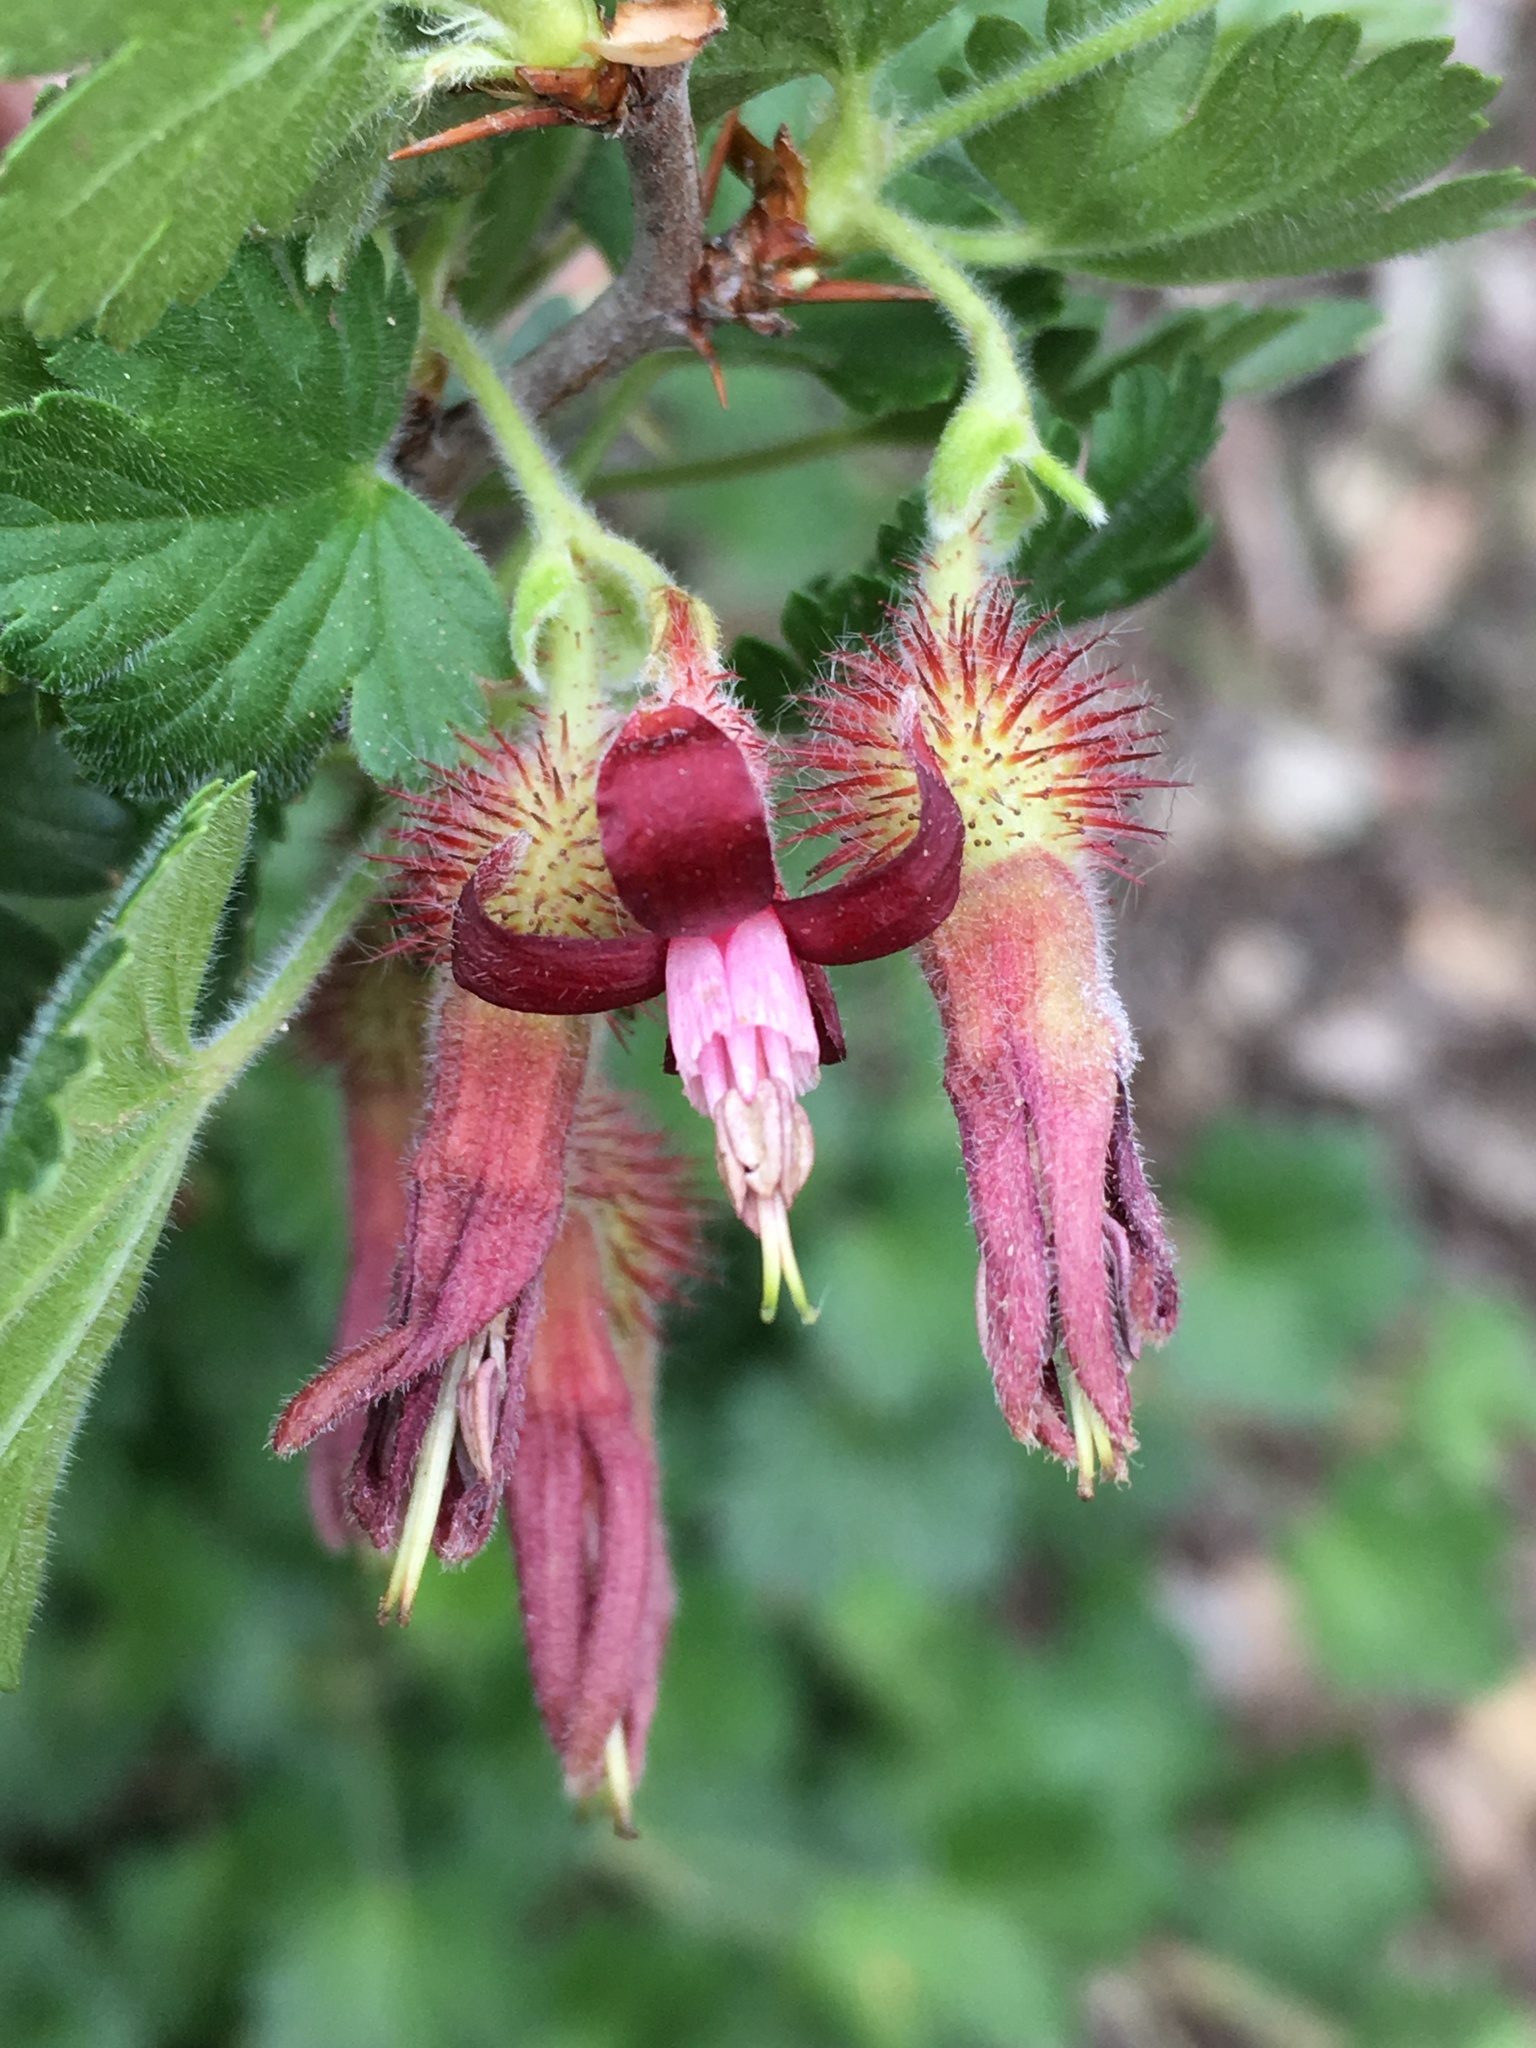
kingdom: Plantae
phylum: Tracheophyta
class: Magnoliopsida
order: Saxifragales
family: Grossulariaceae
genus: Ribes
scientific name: Ribes roezlii
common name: Sierra gooseberry
